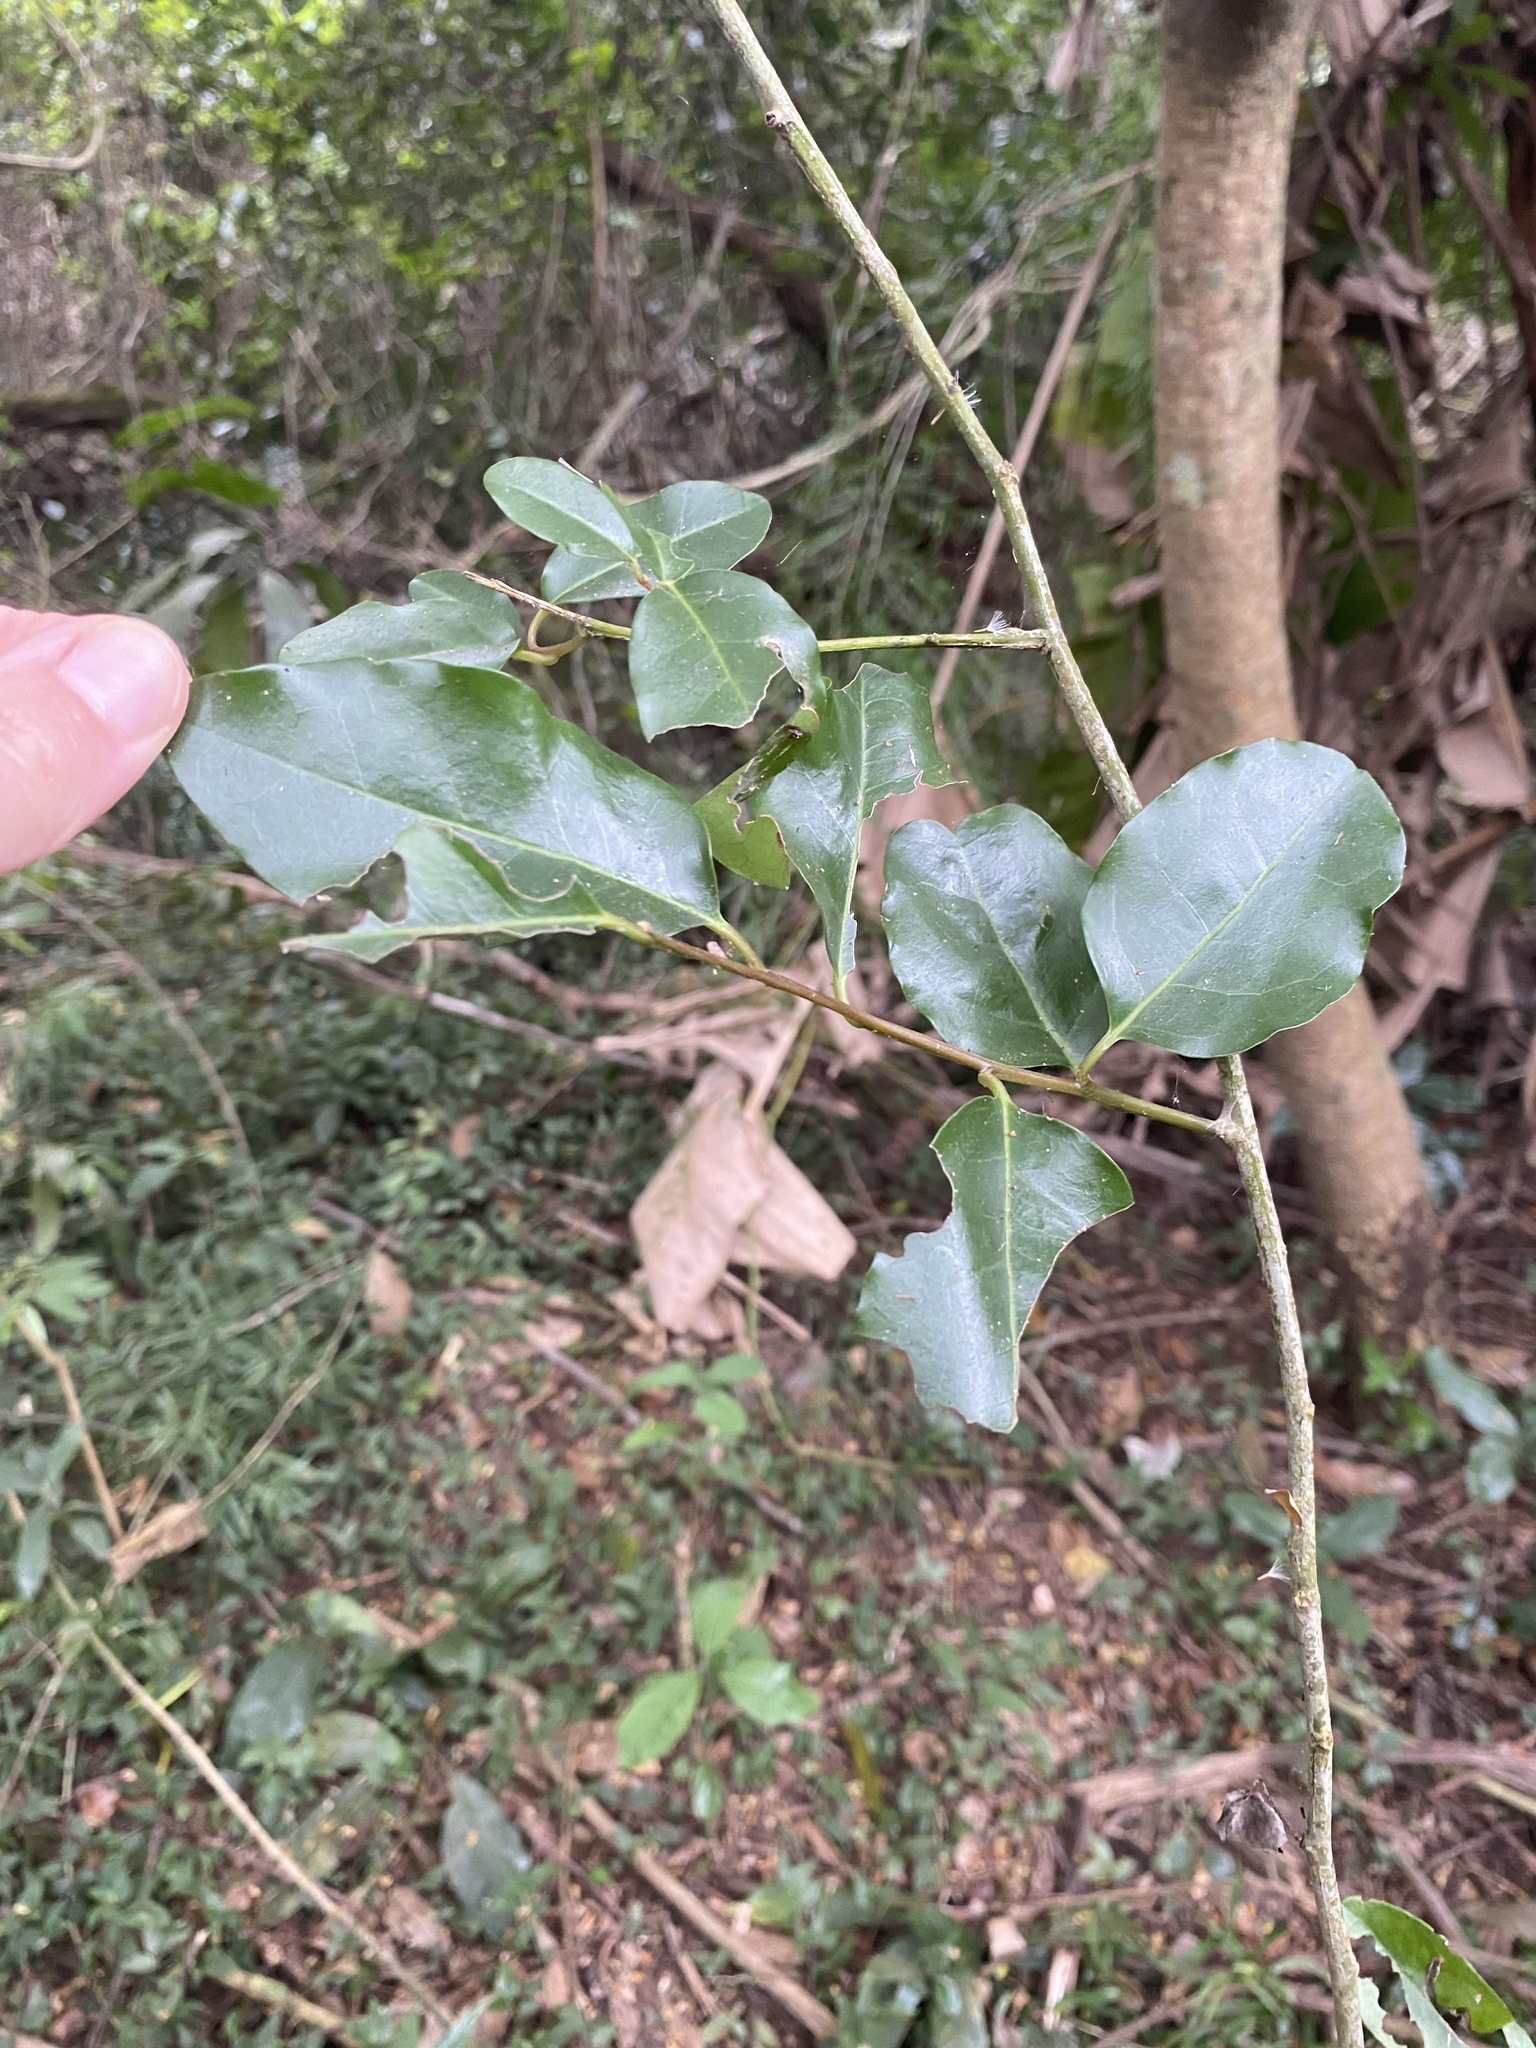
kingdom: Plantae
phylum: Tracheophyta
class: Magnoliopsida
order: Metteniusales
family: Metteniusaceae
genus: Apodytes
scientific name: Apodytes dimidiata
